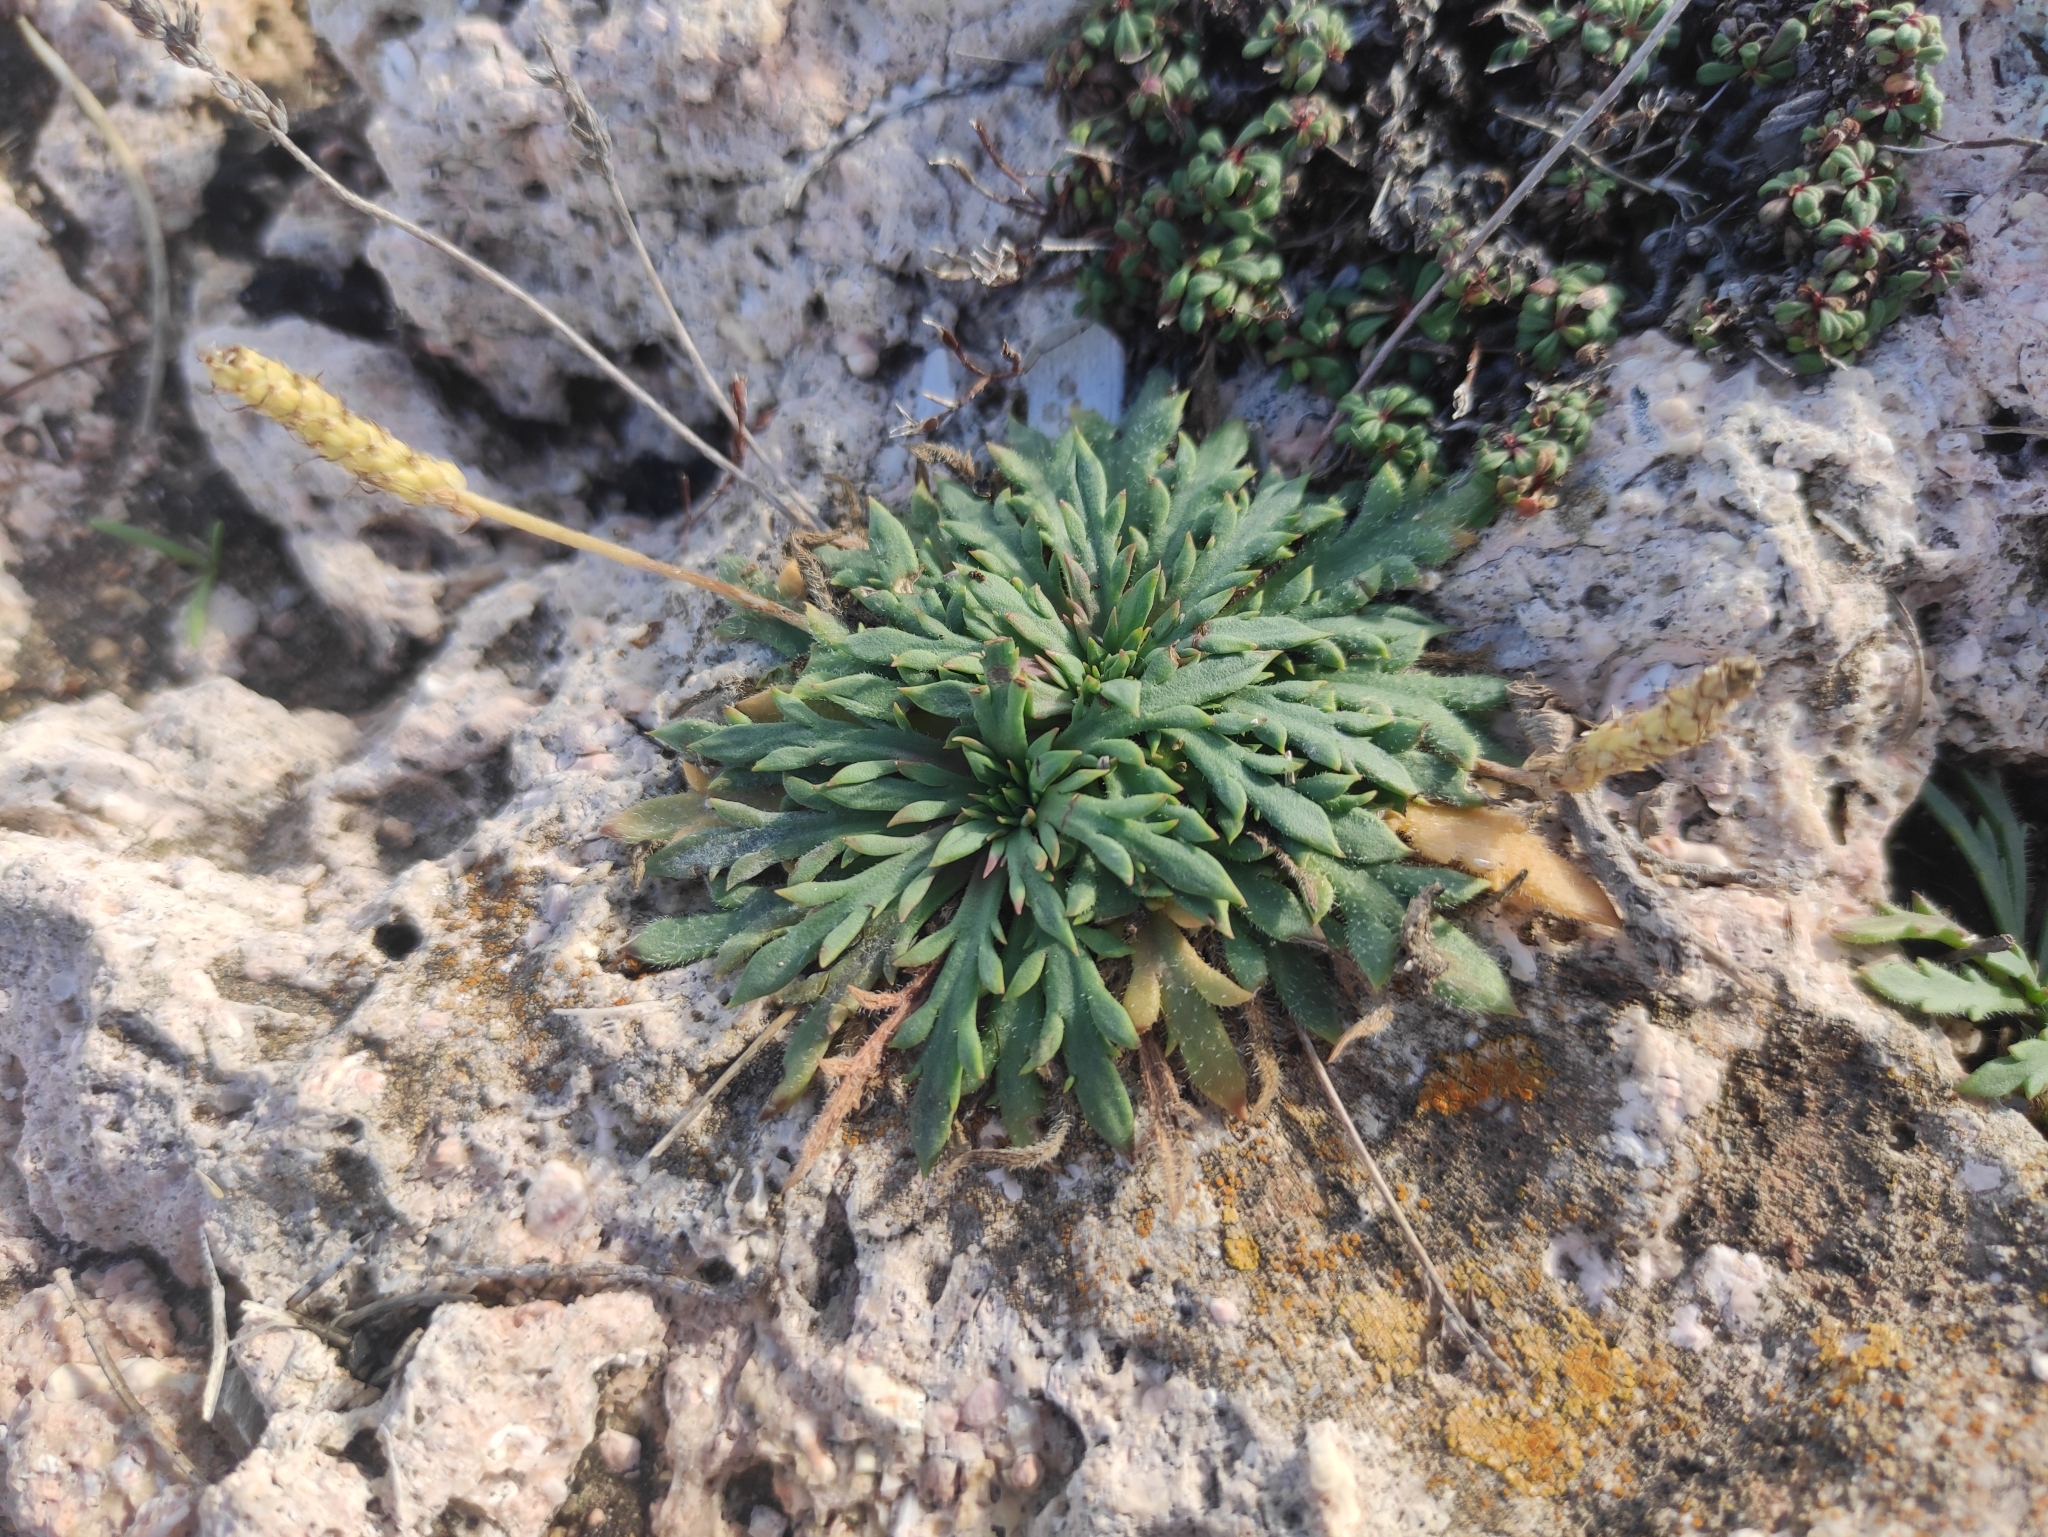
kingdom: Plantae
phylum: Tracheophyta
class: Magnoliopsida
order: Lamiales
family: Plantaginaceae
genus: Plantago
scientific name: Plantago coronopus
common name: Buck's-horn plantain
